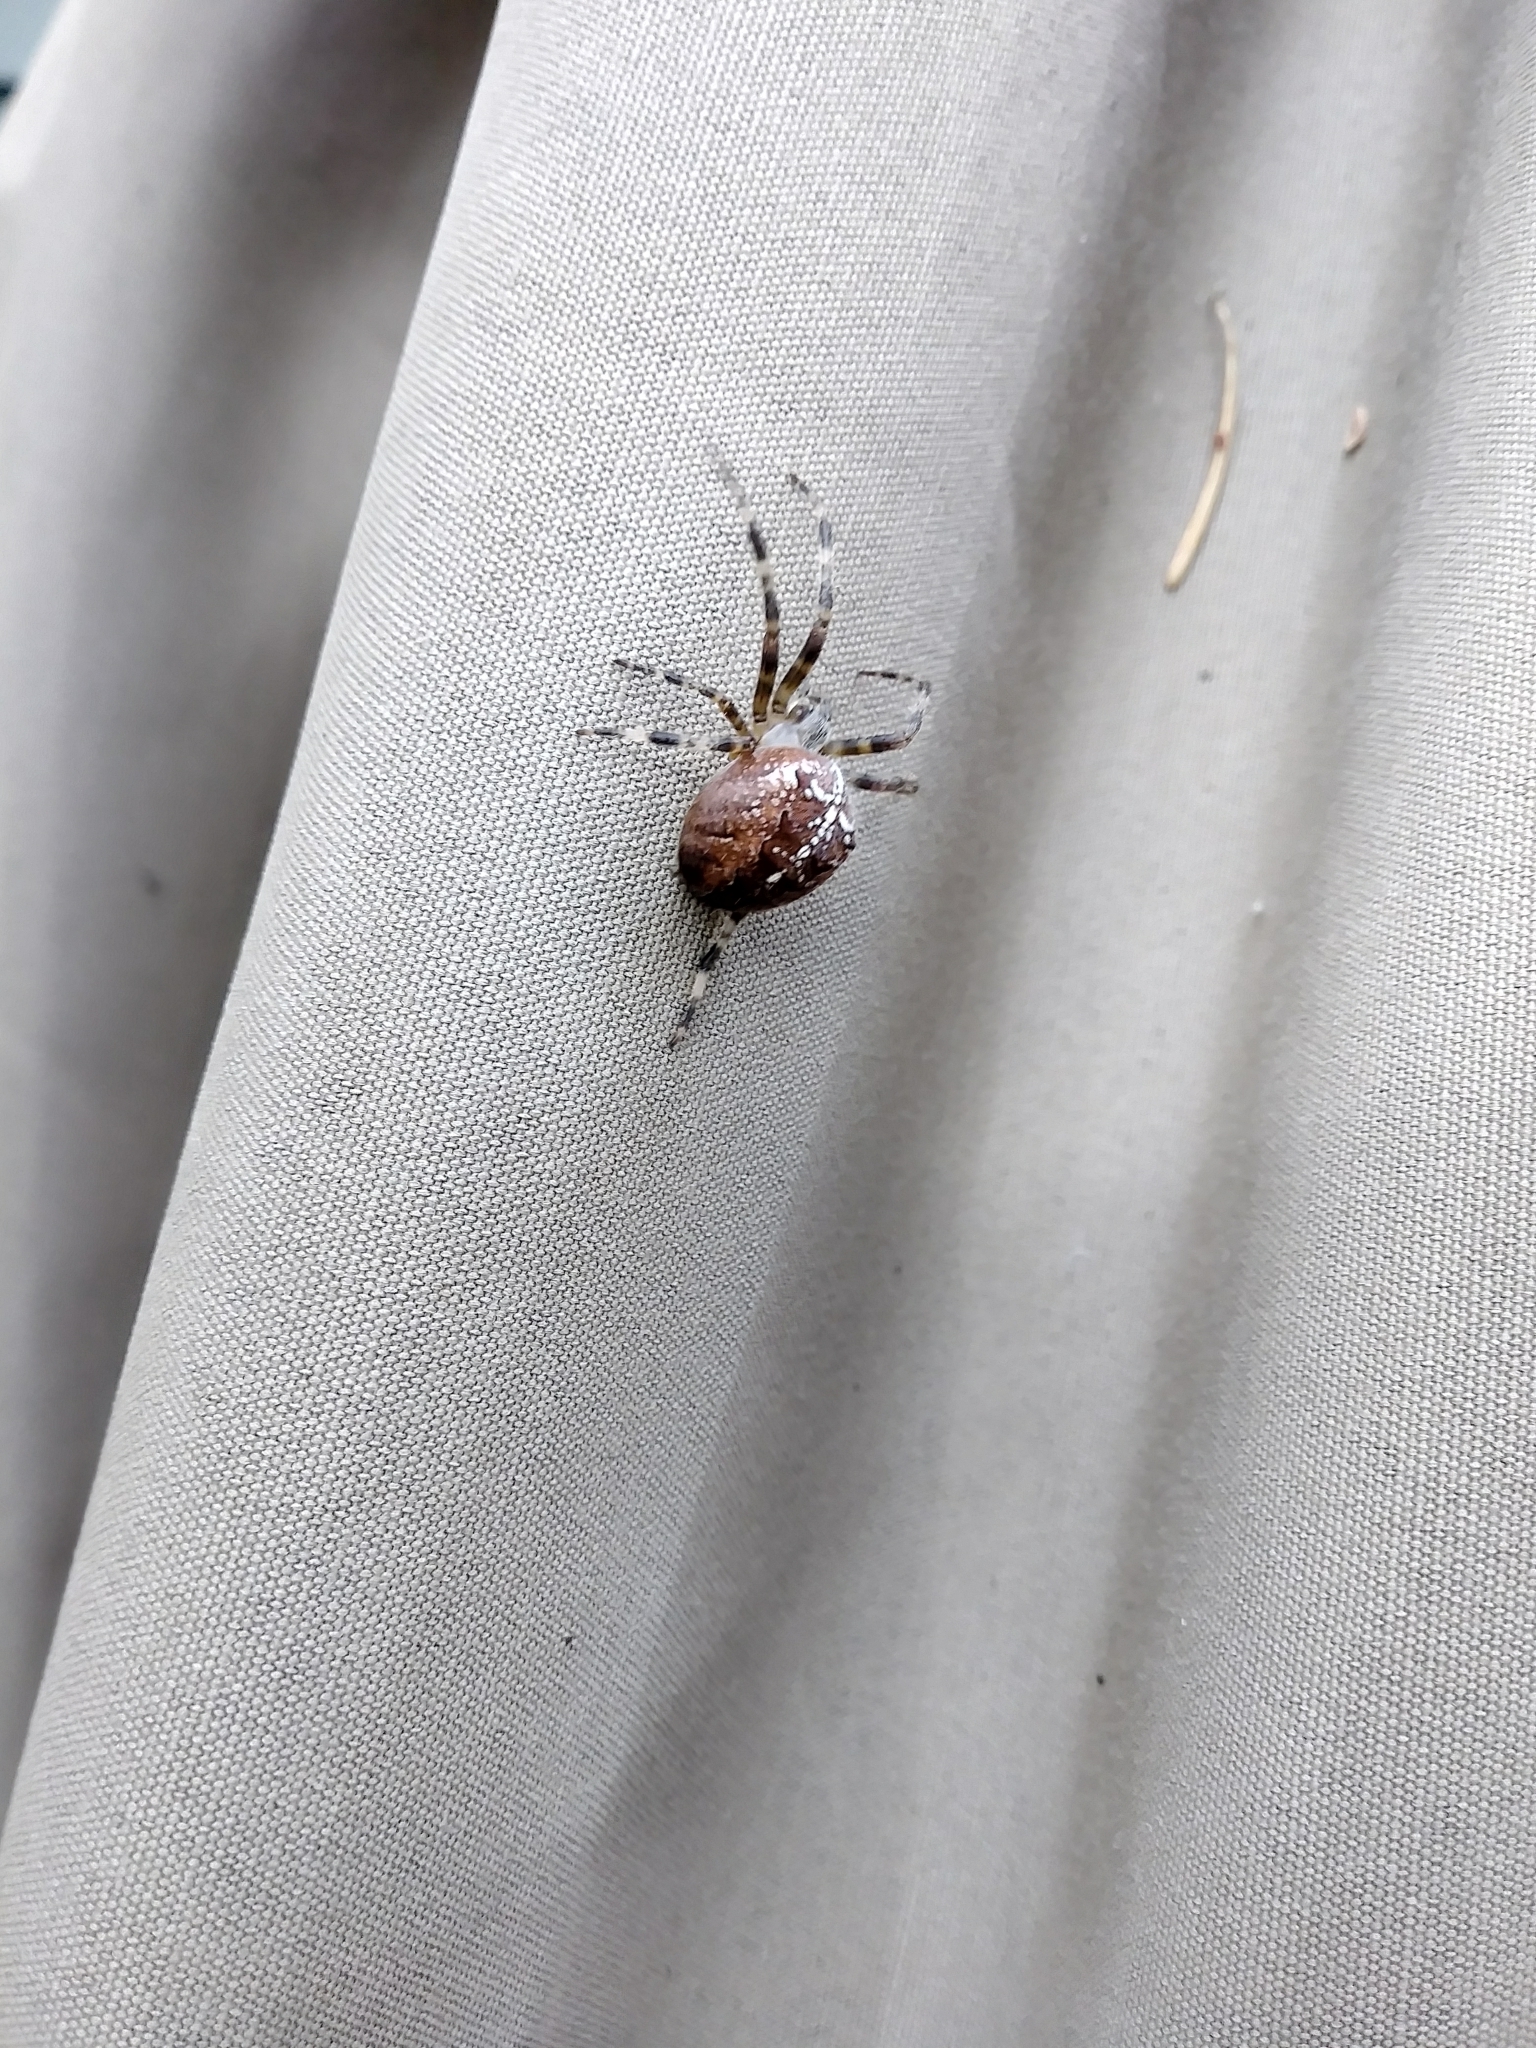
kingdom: Animalia
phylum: Arthropoda
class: Arachnida
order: Araneae
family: Araneidae
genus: Araneus
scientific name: Araneus diadematus
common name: Cross orbweaver
